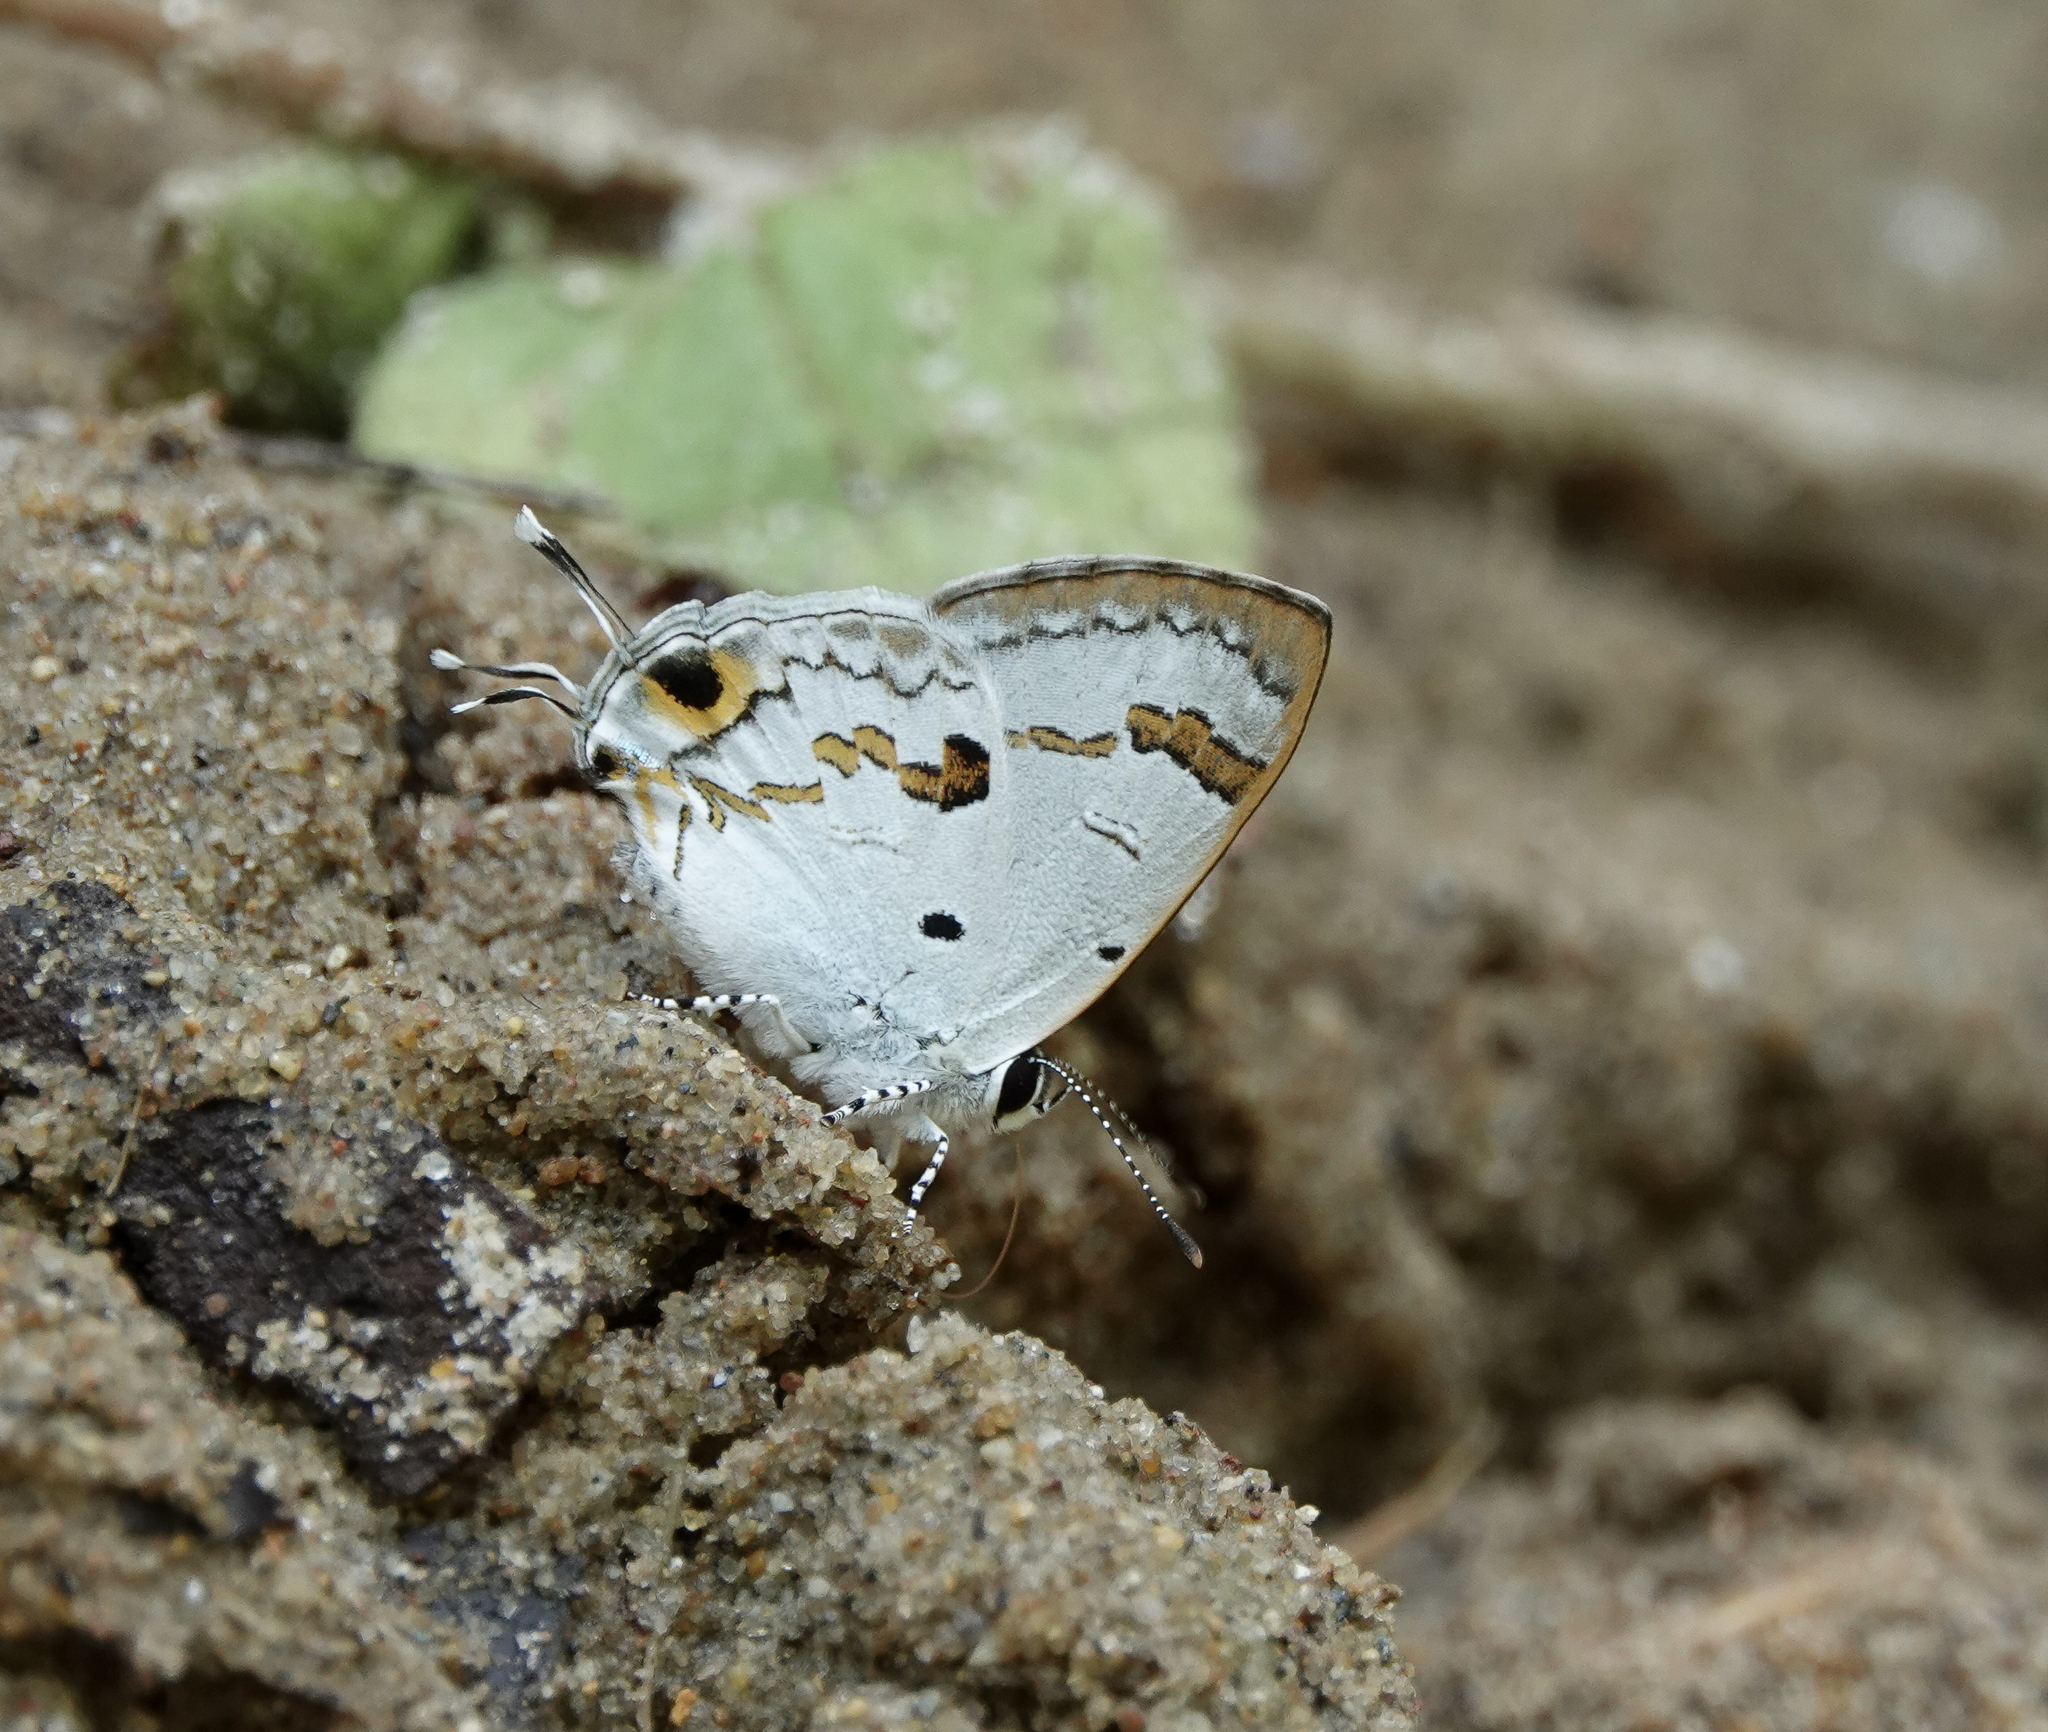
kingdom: Animalia
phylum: Arthropoda
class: Insecta
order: Lepidoptera
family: Lycaenidae
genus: Chliaria
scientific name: Chliaria othona
